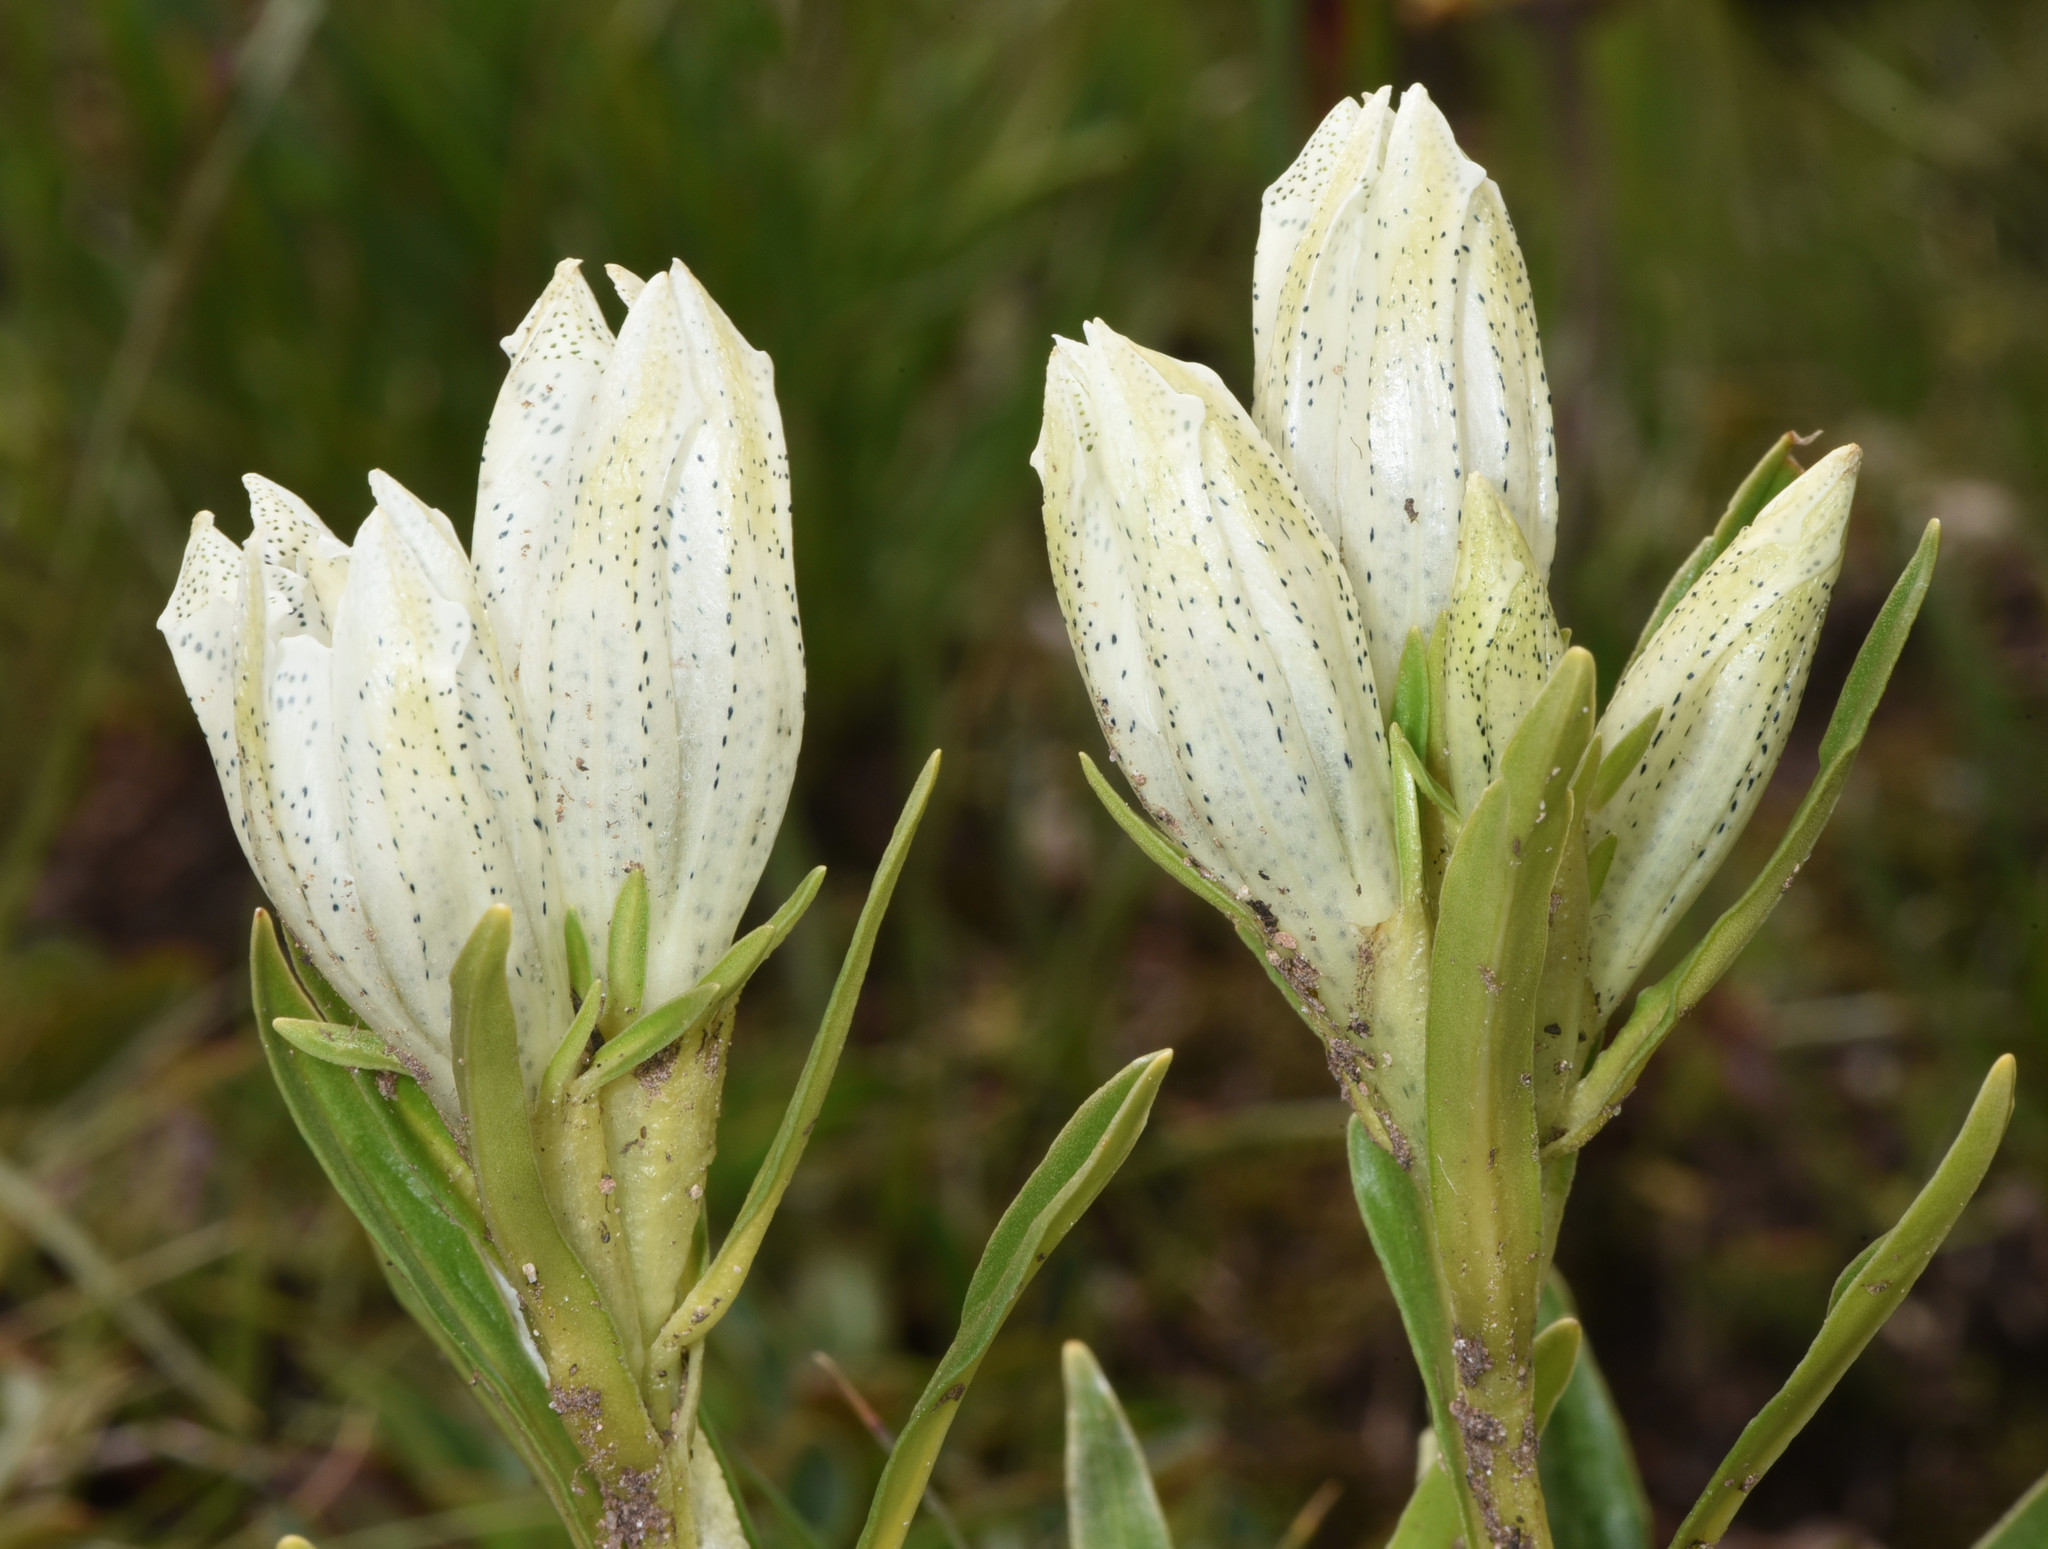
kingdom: Plantae
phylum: Tracheophyta
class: Magnoliopsida
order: Gentianales
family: Gentianaceae
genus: Gentiana
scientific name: Gentiana algida
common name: Arctic gentian
